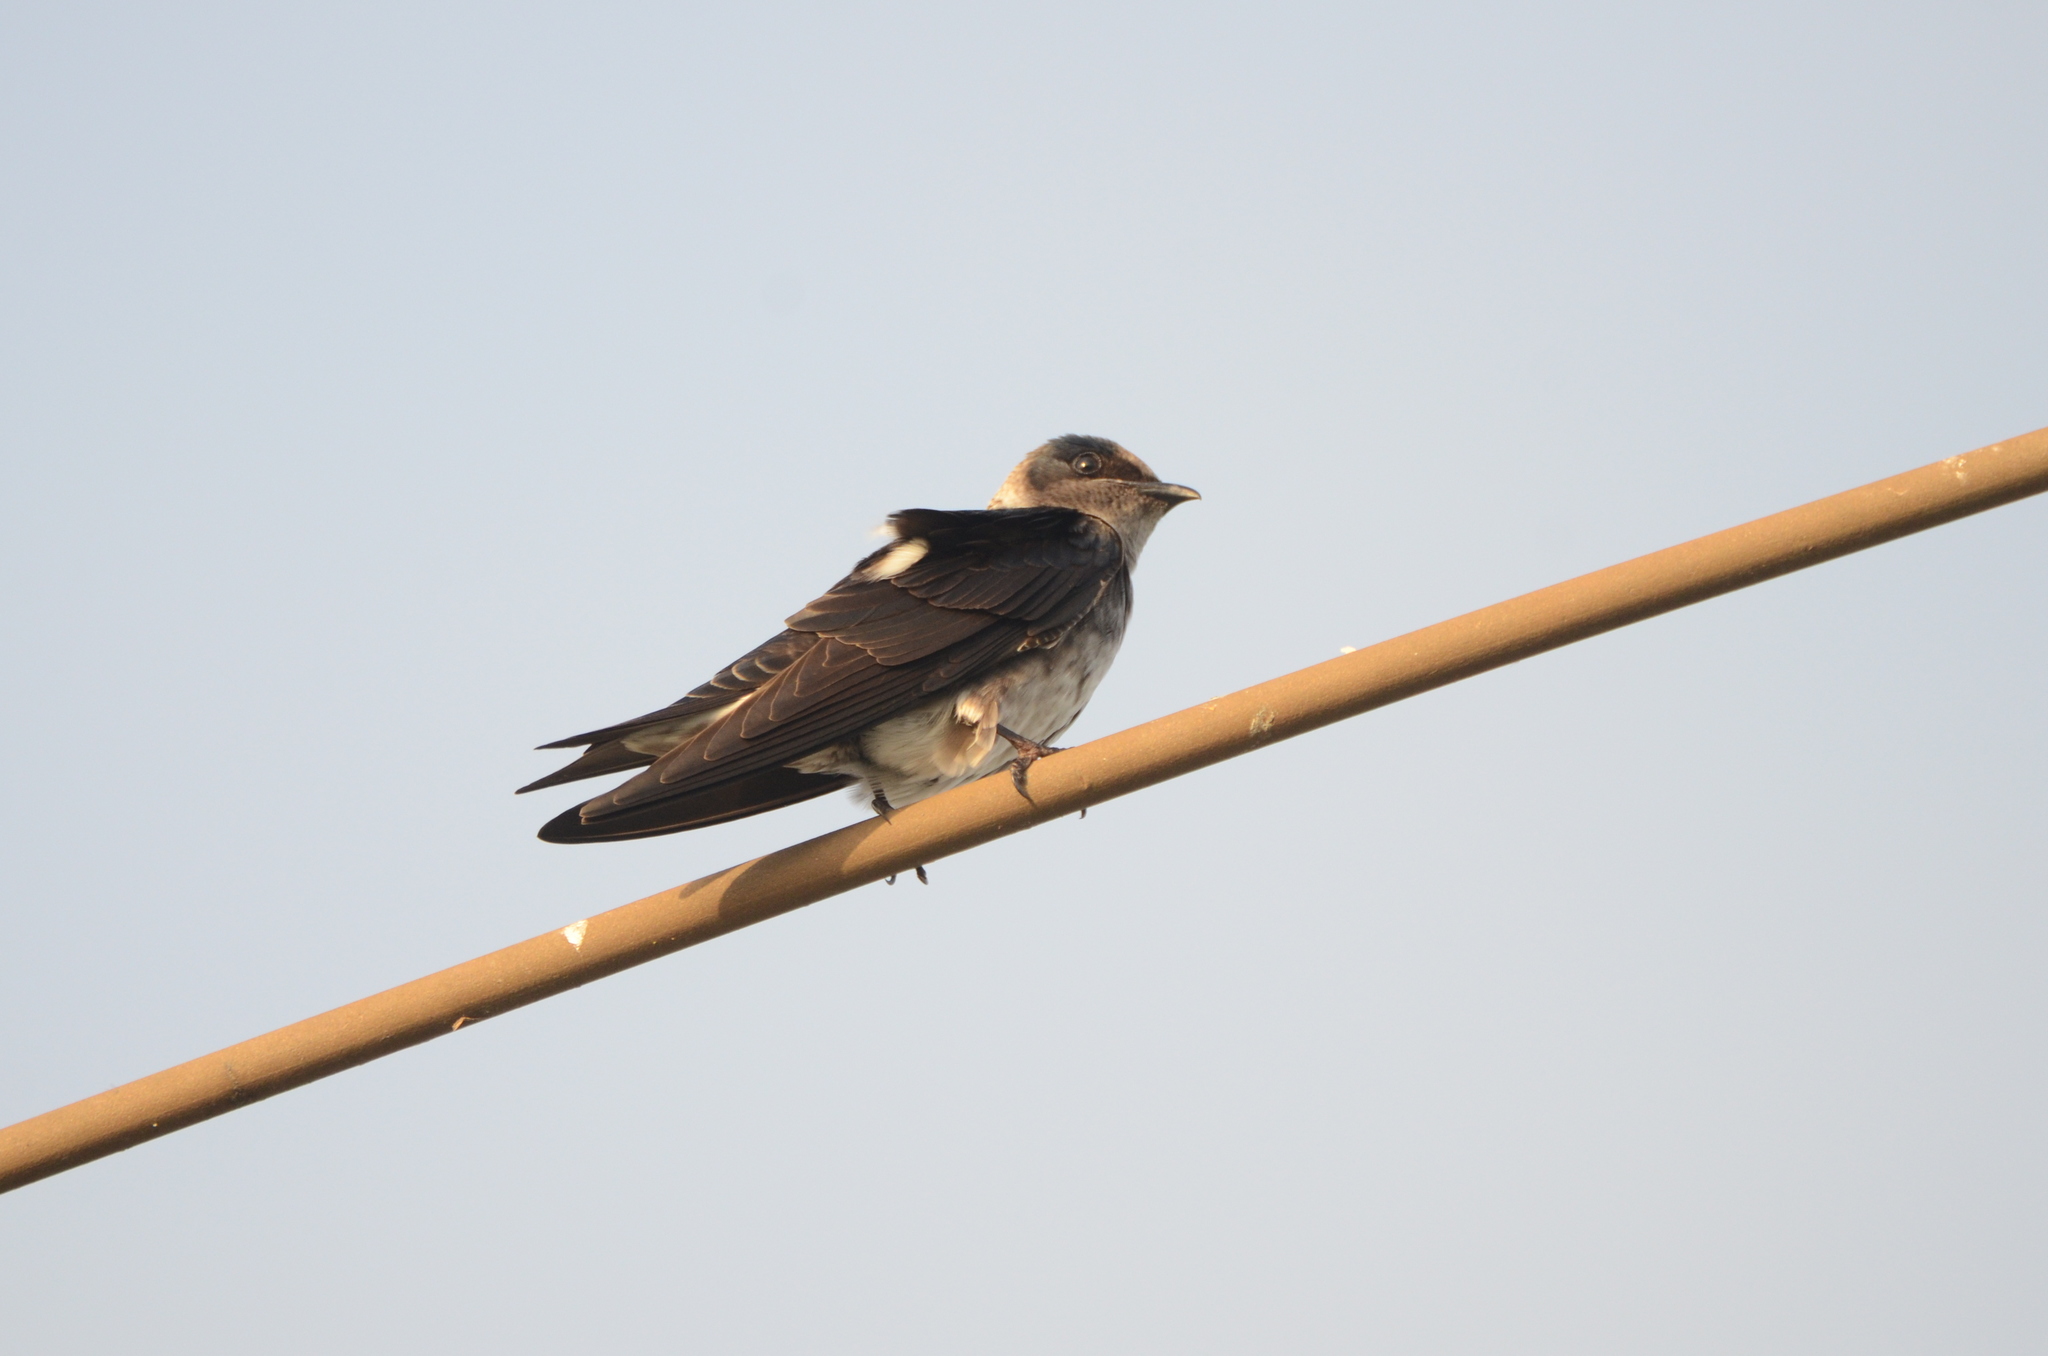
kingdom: Animalia
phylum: Chordata
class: Aves
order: Passeriformes
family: Hirundinidae
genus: Progne
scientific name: Progne subis
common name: Purple martin
